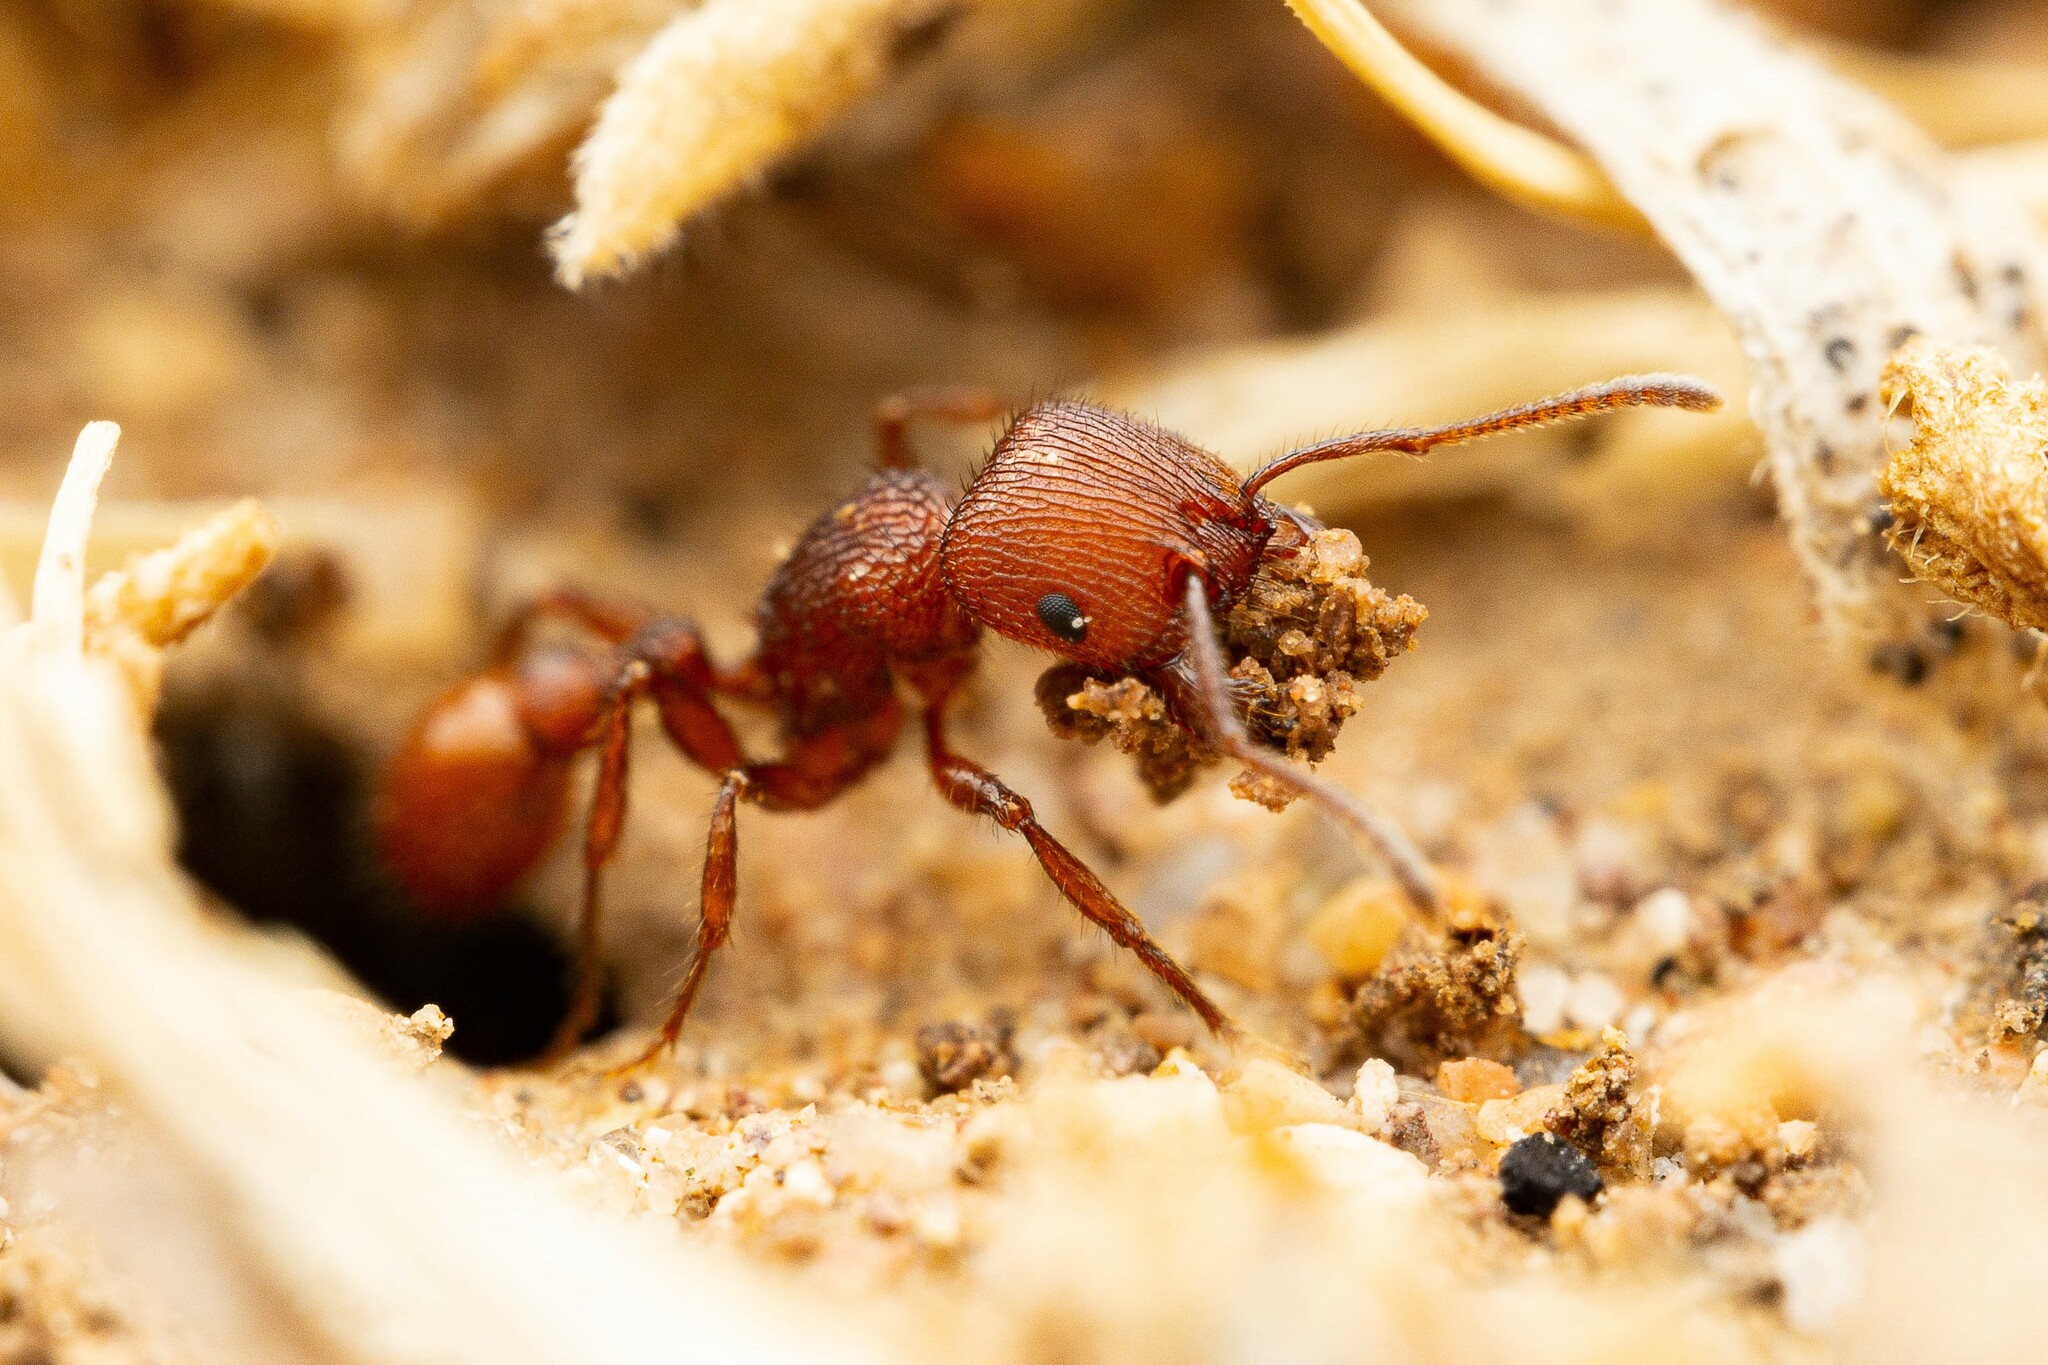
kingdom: Animalia
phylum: Arthropoda
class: Insecta
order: Hymenoptera
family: Formicidae
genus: Pogonomyrmex
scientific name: Pogonomyrmex imberbiculus
